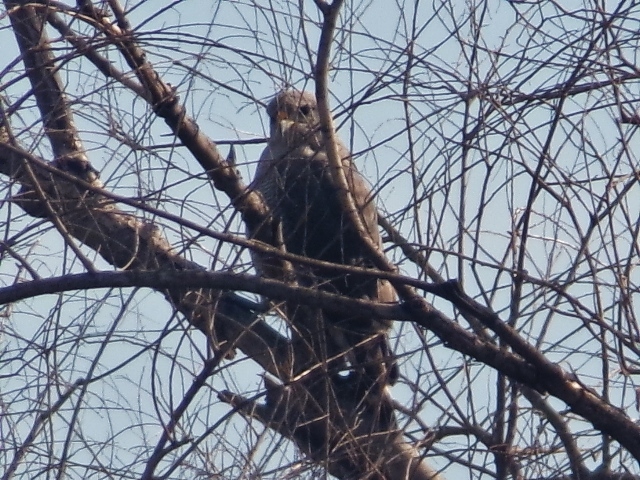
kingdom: Animalia
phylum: Chordata
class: Aves
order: Accipitriformes
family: Accipitridae
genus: Buteo
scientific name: Buteo nitidus
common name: Grey-lined hawk
